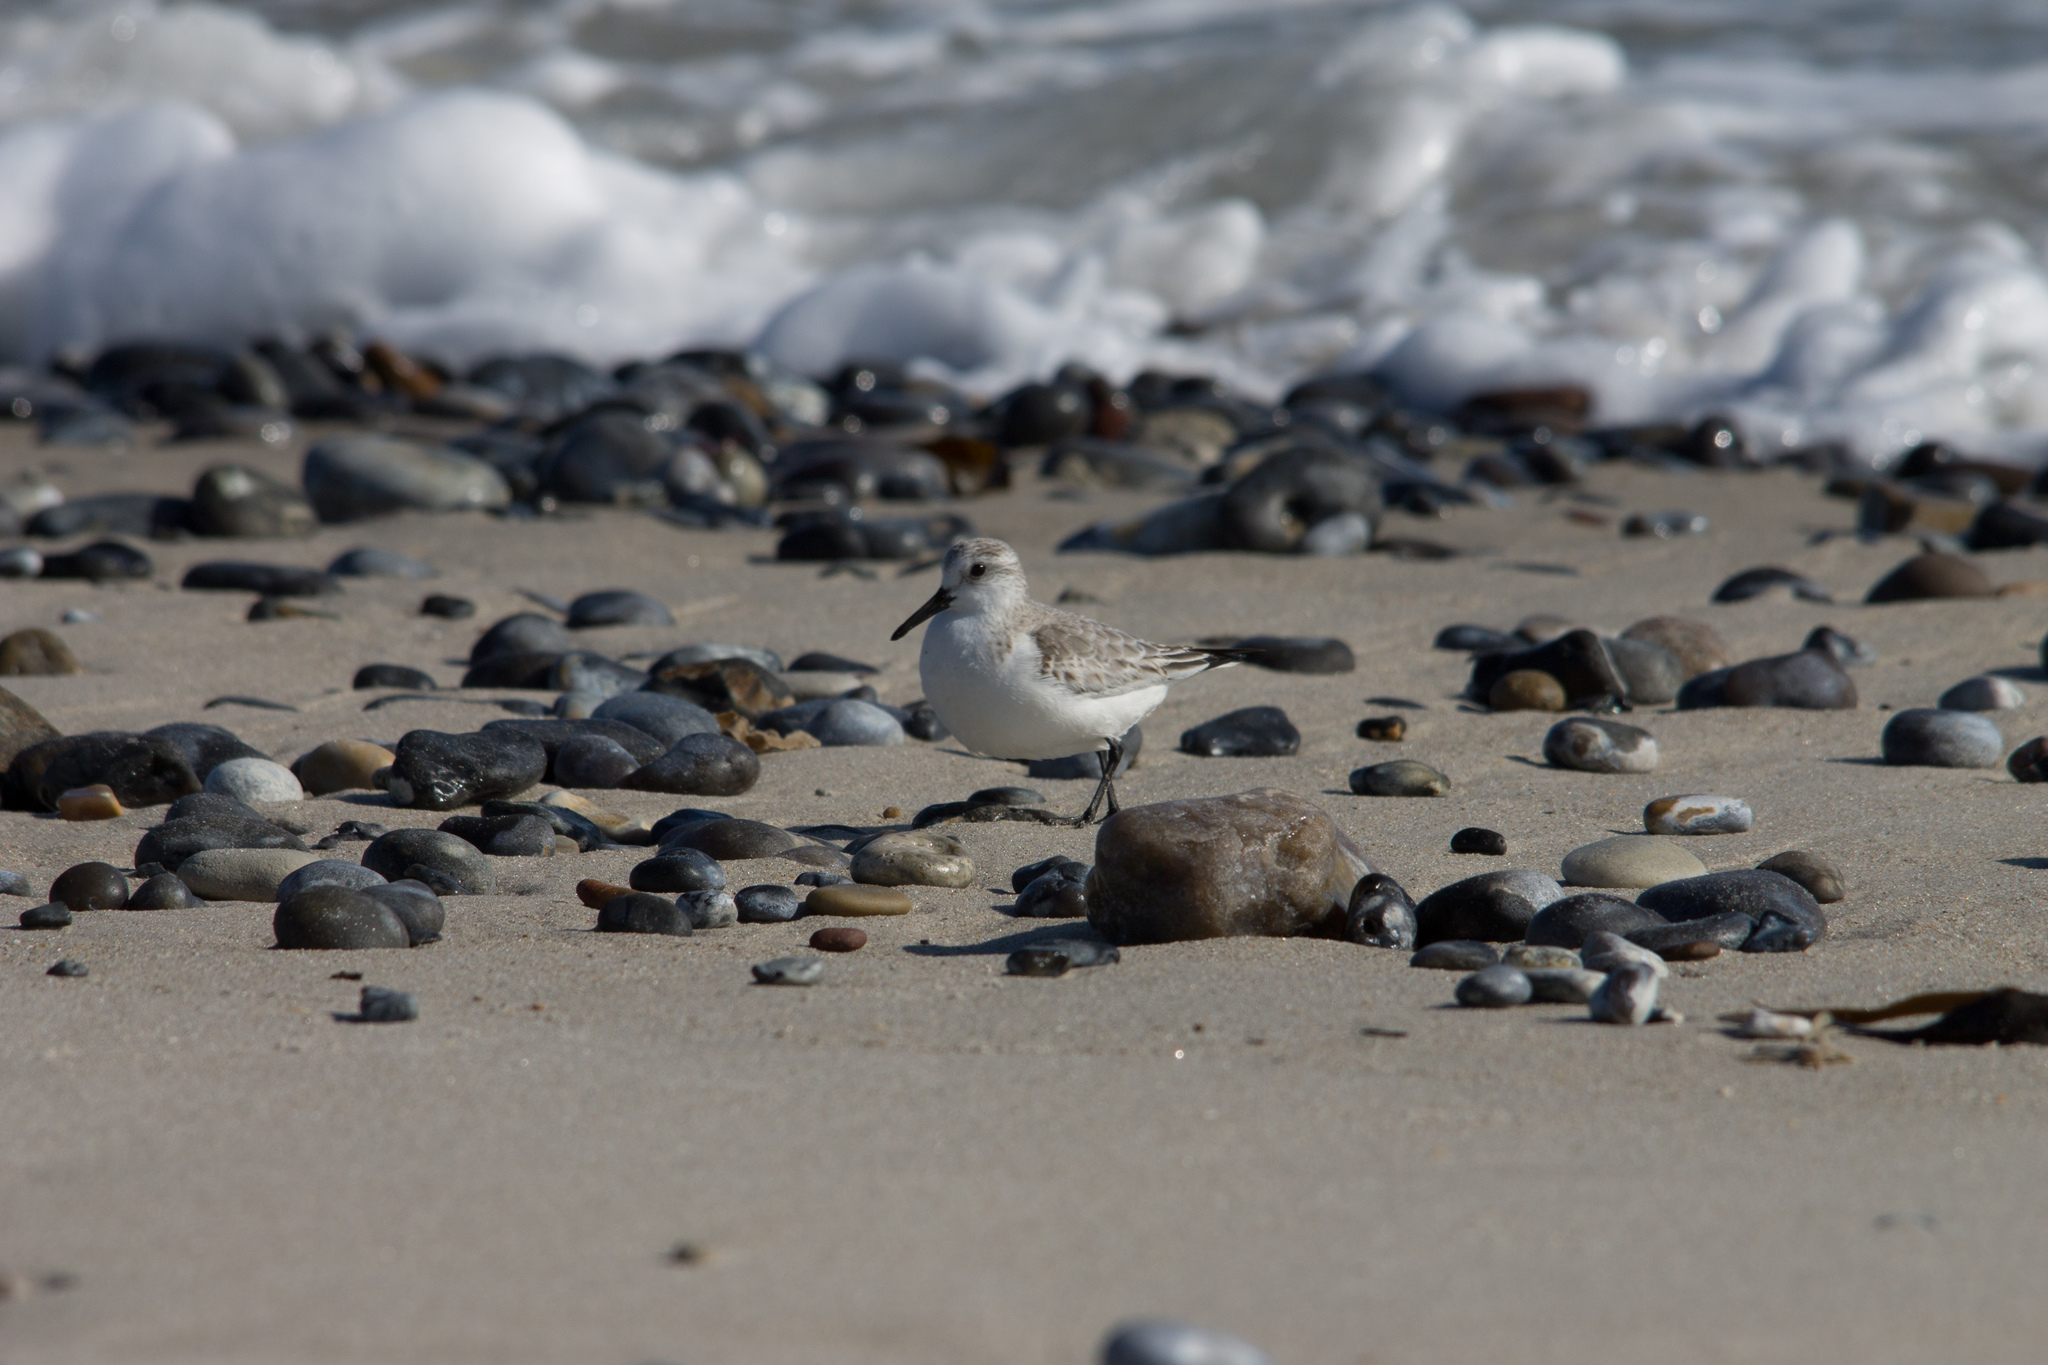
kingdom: Animalia
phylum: Chordata
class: Aves
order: Charadriiformes
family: Scolopacidae
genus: Calidris
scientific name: Calidris alba
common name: Sanderling
